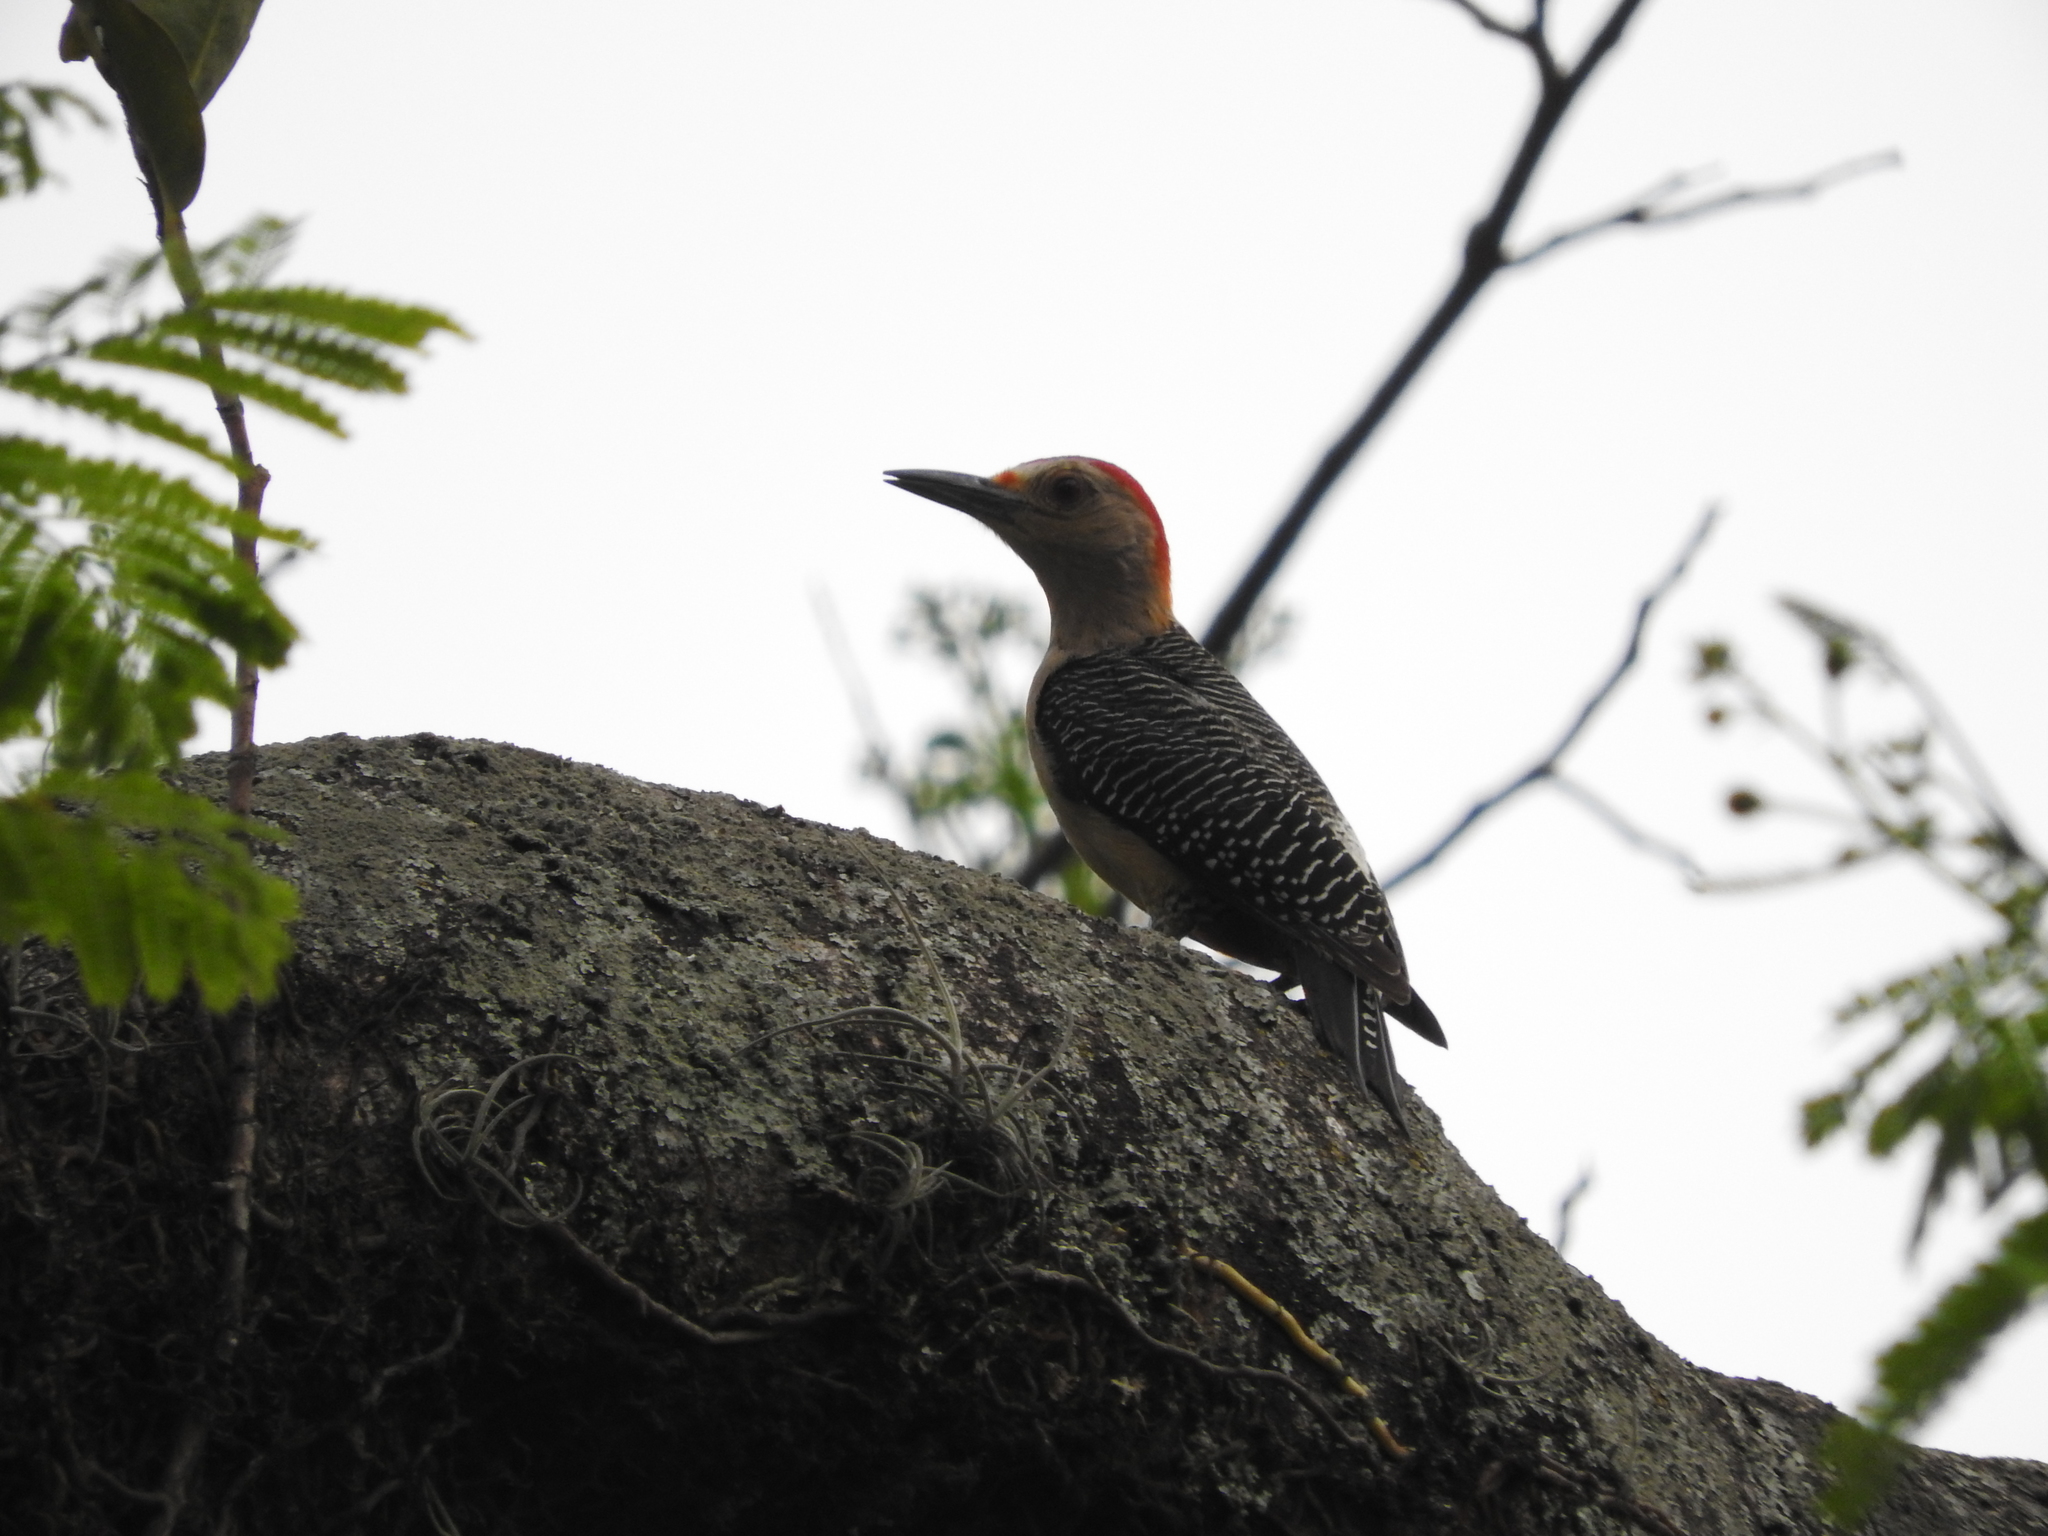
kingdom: Animalia
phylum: Chordata
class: Aves
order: Piciformes
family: Picidae
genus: Melanerpes
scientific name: Melanerpes aurifrons
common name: Golden-fronted woodpecker
